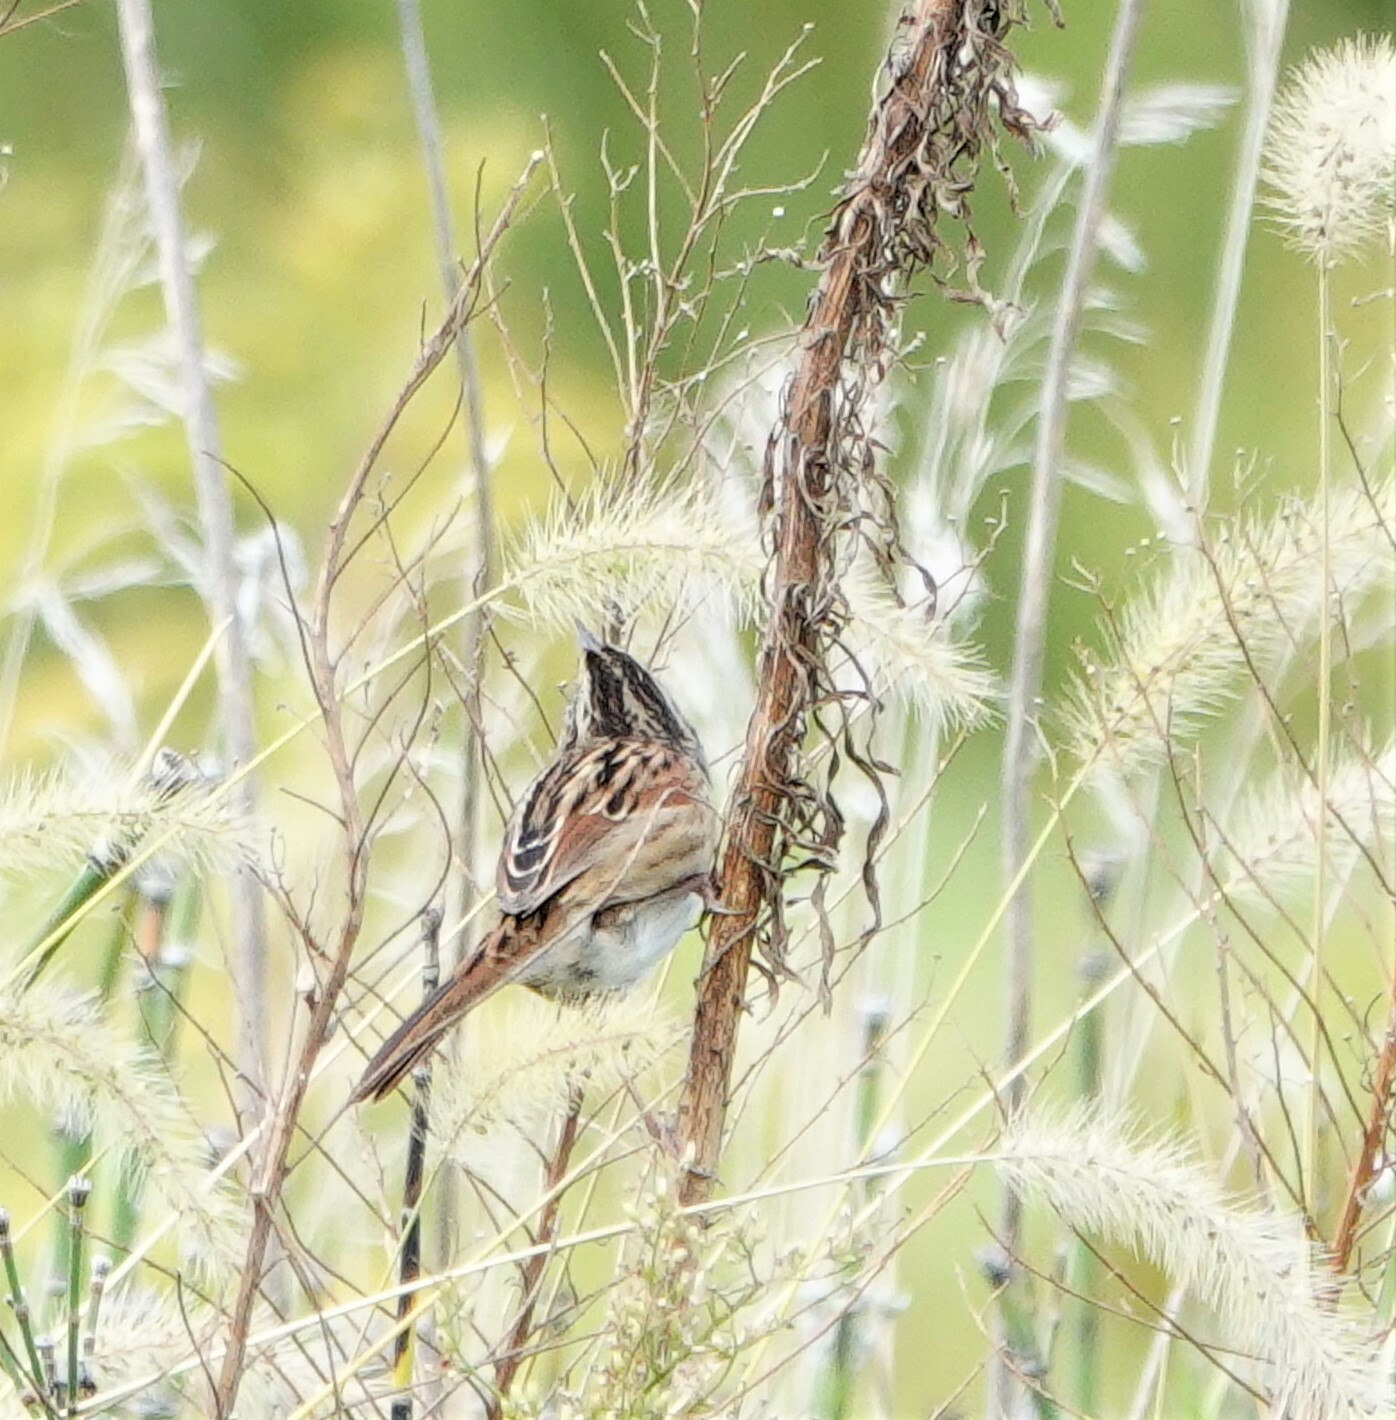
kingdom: Animalia
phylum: Chordata
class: Aves
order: Passeriformes
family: Passerellidae
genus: Melospiza
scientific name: Melospiza georgiana
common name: Swamp sparrow
